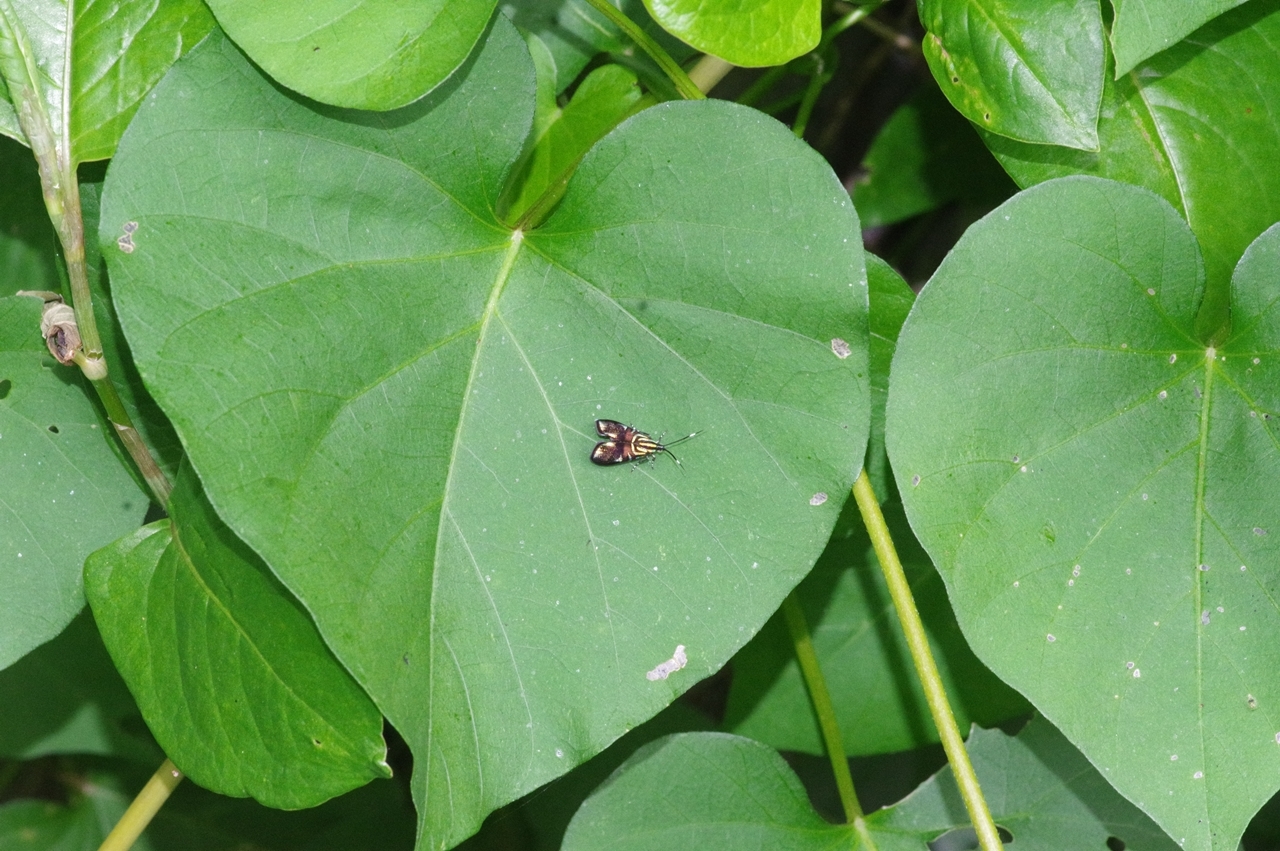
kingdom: Animalia
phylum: Arthropoda
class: Insecta
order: Lepidoptera
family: Choreutidae
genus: Saptha
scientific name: Saptha divitiosa
